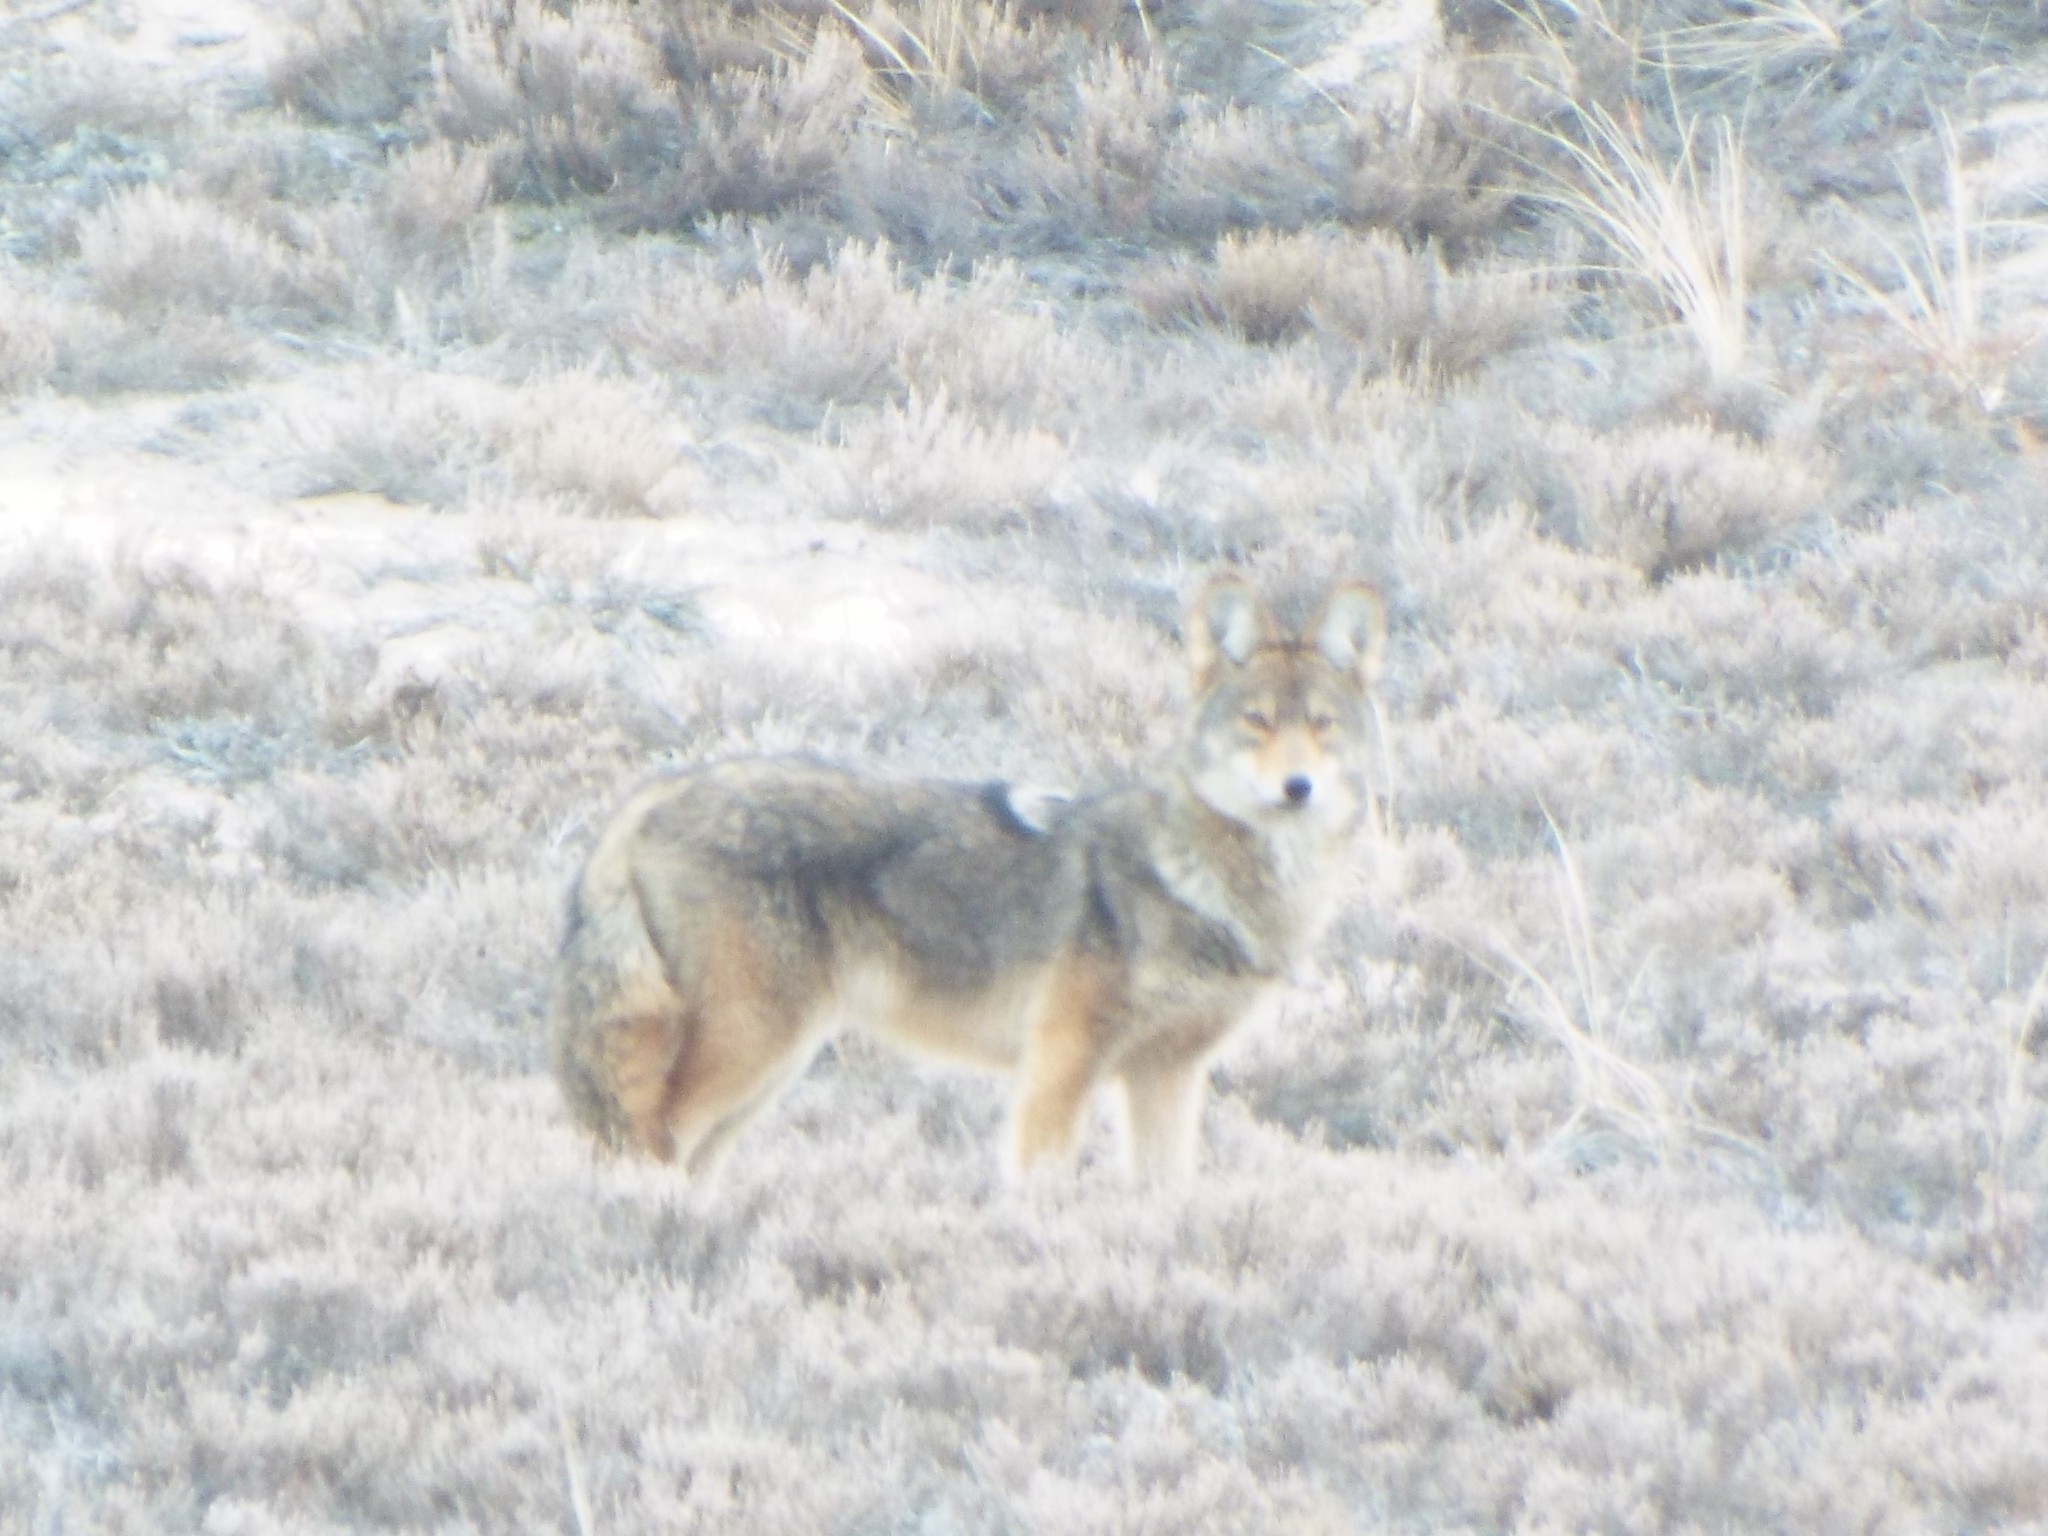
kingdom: Animalia
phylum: Chordata
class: Mammalia
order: Carnivora
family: Canidae
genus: Canis
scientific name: Canis latrans
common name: Coyote
